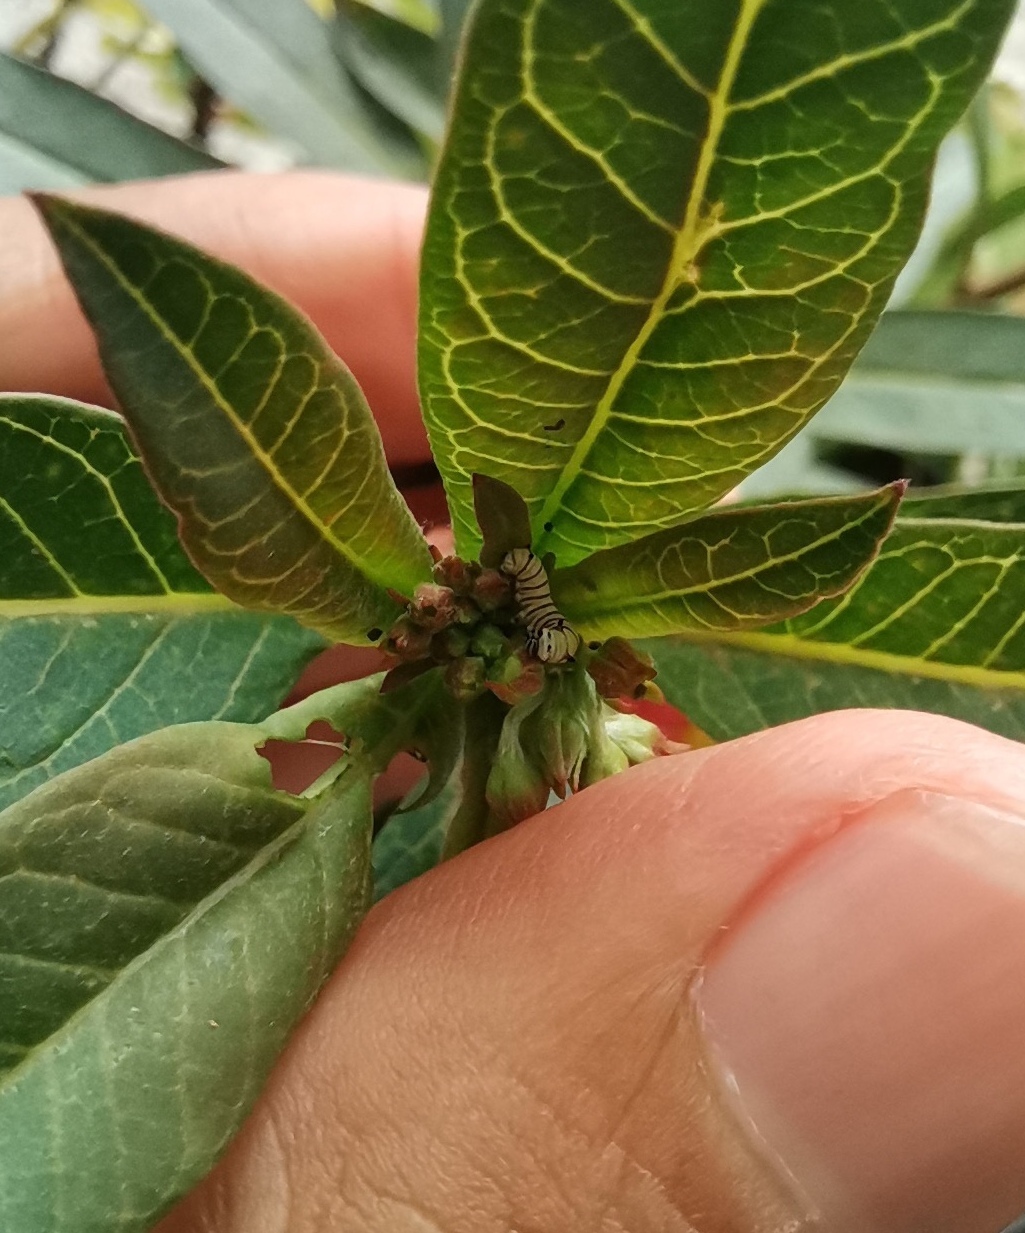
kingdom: Animalia
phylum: Arthropoda
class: Insecta
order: Lepidoptera
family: Nymphalidae
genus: Danaus
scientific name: Danaus plexippus
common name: Monarch
